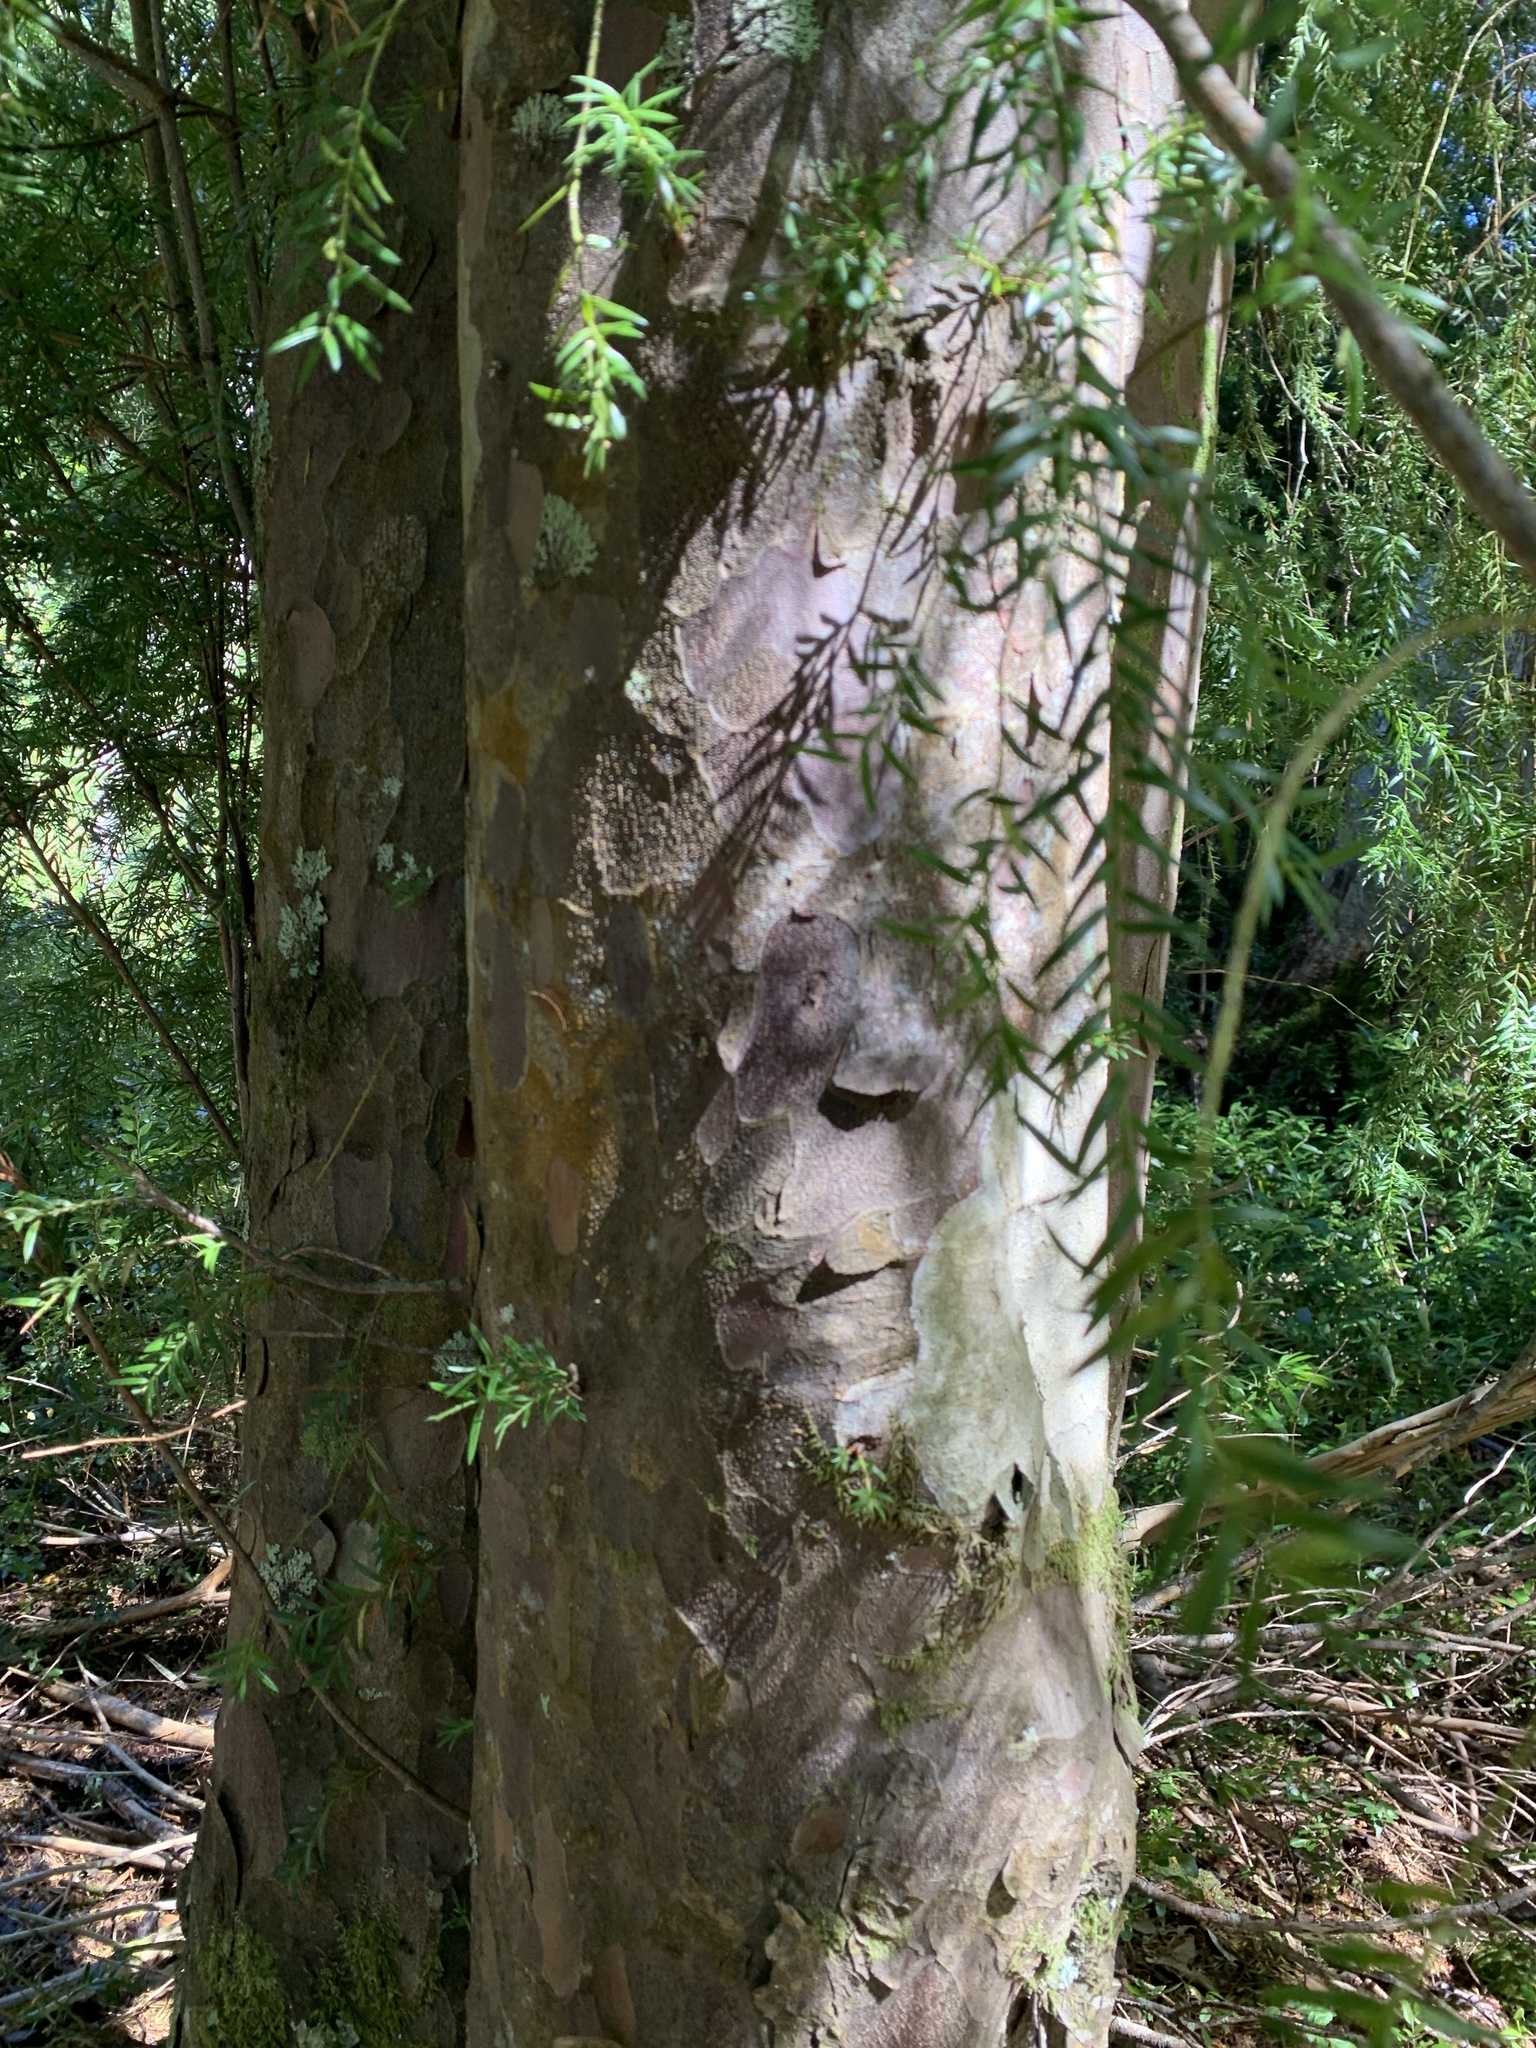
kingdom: Plantae
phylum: Tracheophyta
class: Pinopsida
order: Pinales
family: Podocarpaceae
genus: Saxegothaea
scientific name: Saxegothaea conspicua
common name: Prince albert's yew
